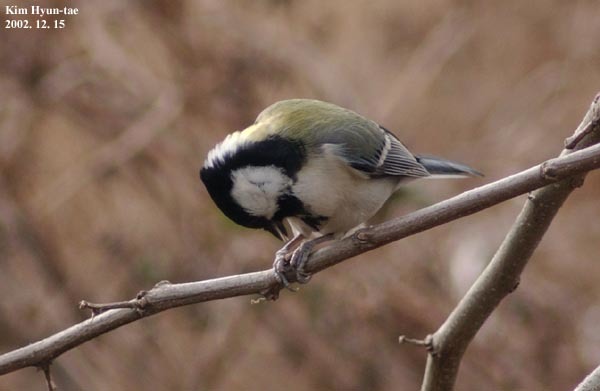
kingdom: Animalia
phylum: Chordata
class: Aves
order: Passeriformes
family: Paridae
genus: Parus
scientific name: Parus minor
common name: Japanese tit
